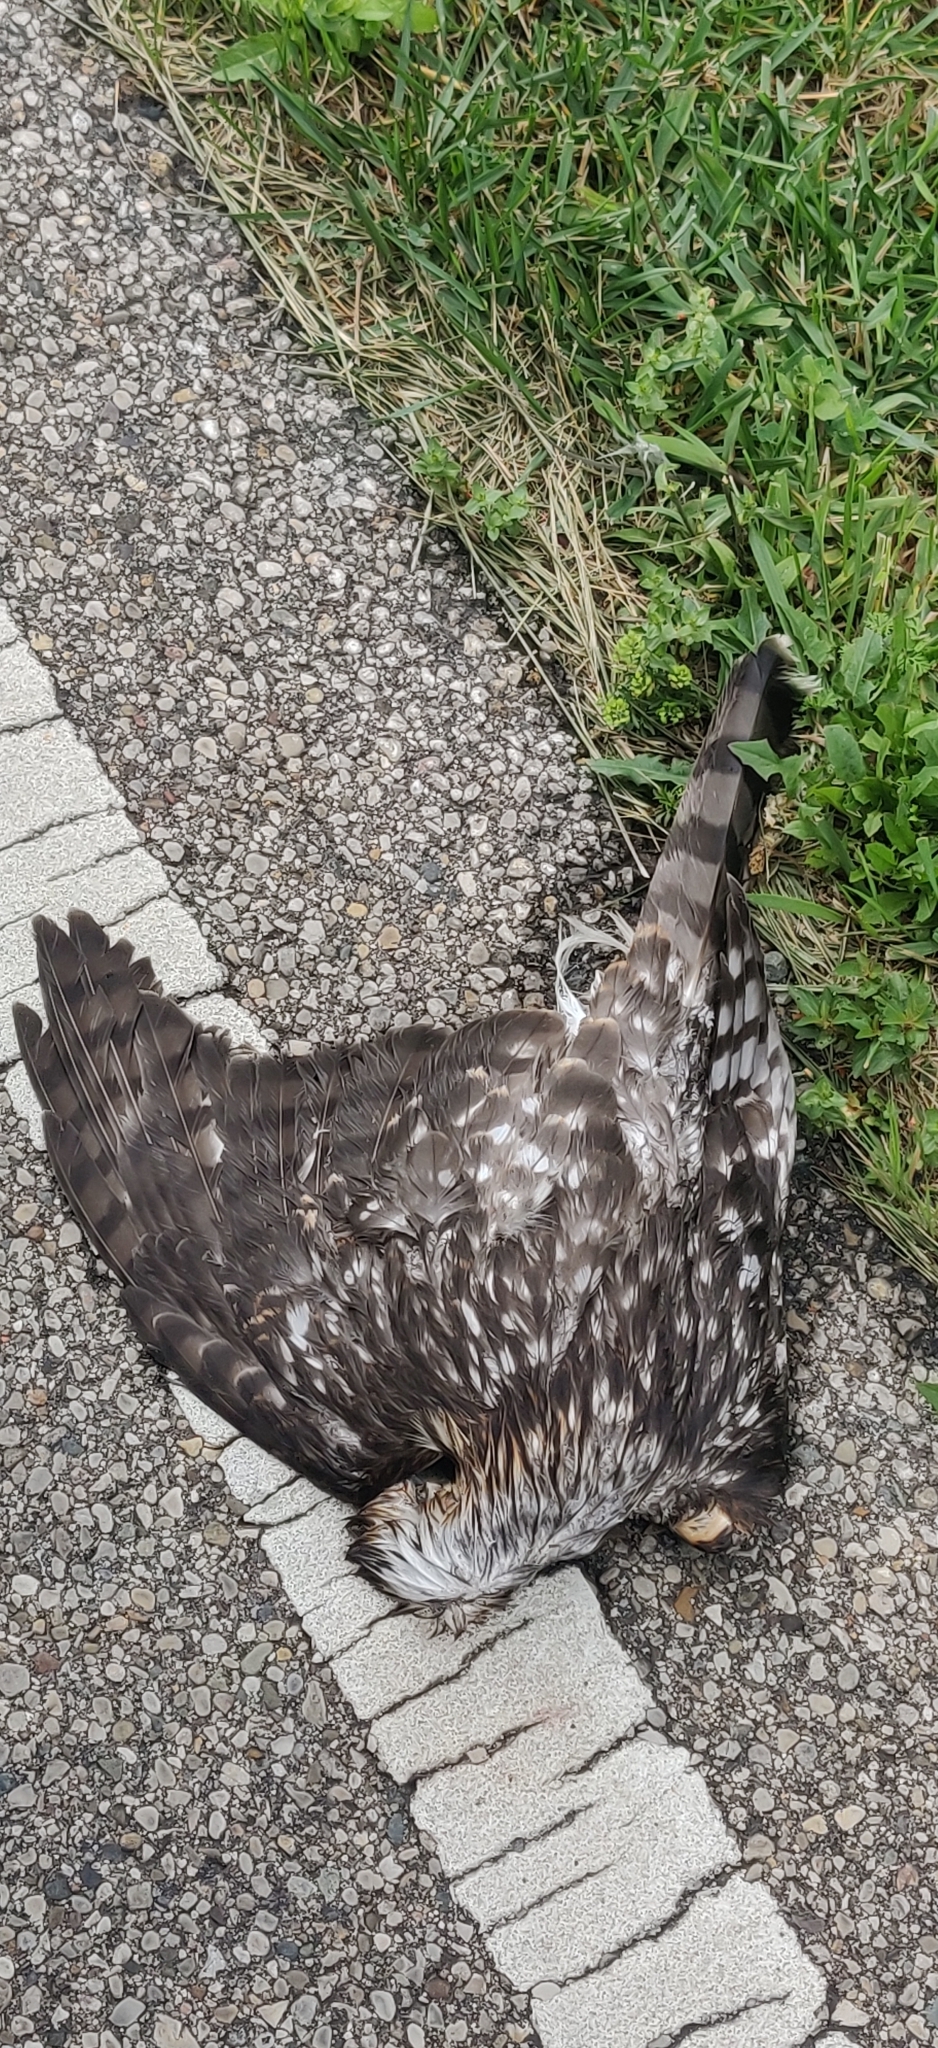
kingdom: Animalia
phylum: Chordata
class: Aves
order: Accipitriformes
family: Accipitridae
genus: Accipiter
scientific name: Accipiter cooperii
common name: Cooper's hawk
